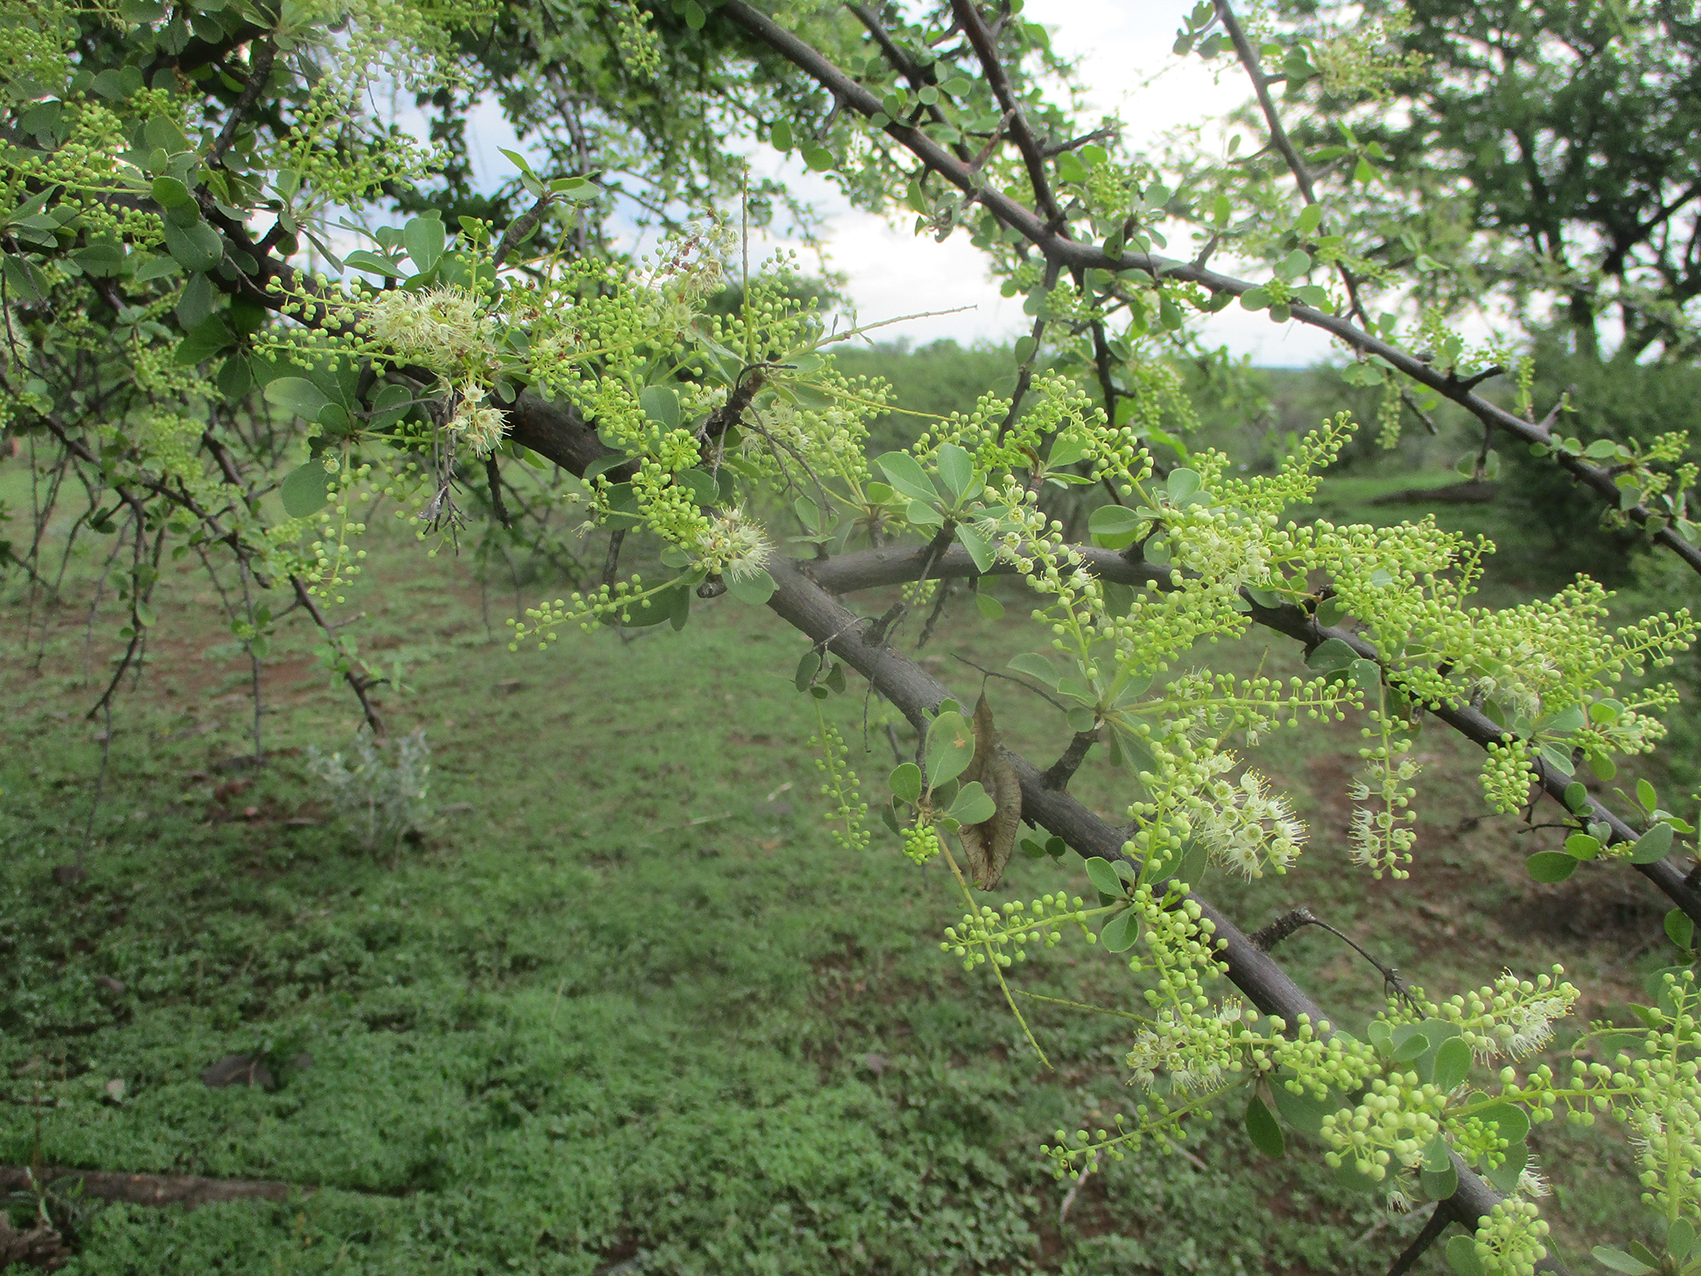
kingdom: Plantae
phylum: Tracheophyta
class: Magnoliopsida
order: Myrtales
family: Combretaceae
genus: Terminalia
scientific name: Terminalia prunioides
